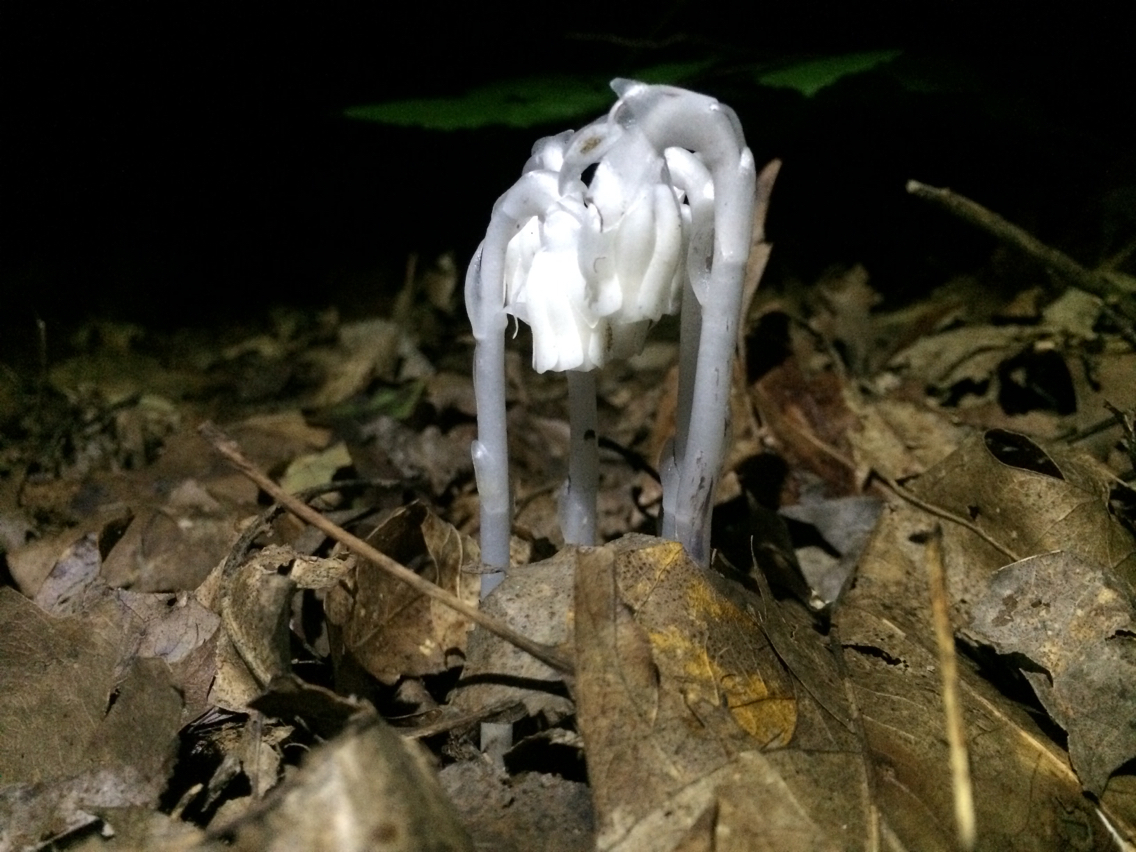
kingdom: Plantae
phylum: Tracheophyta
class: Magnoliopsida
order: Ericales
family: Ericaceae
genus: Monotropa
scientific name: Monotropa uniflora
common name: Convulsion root
